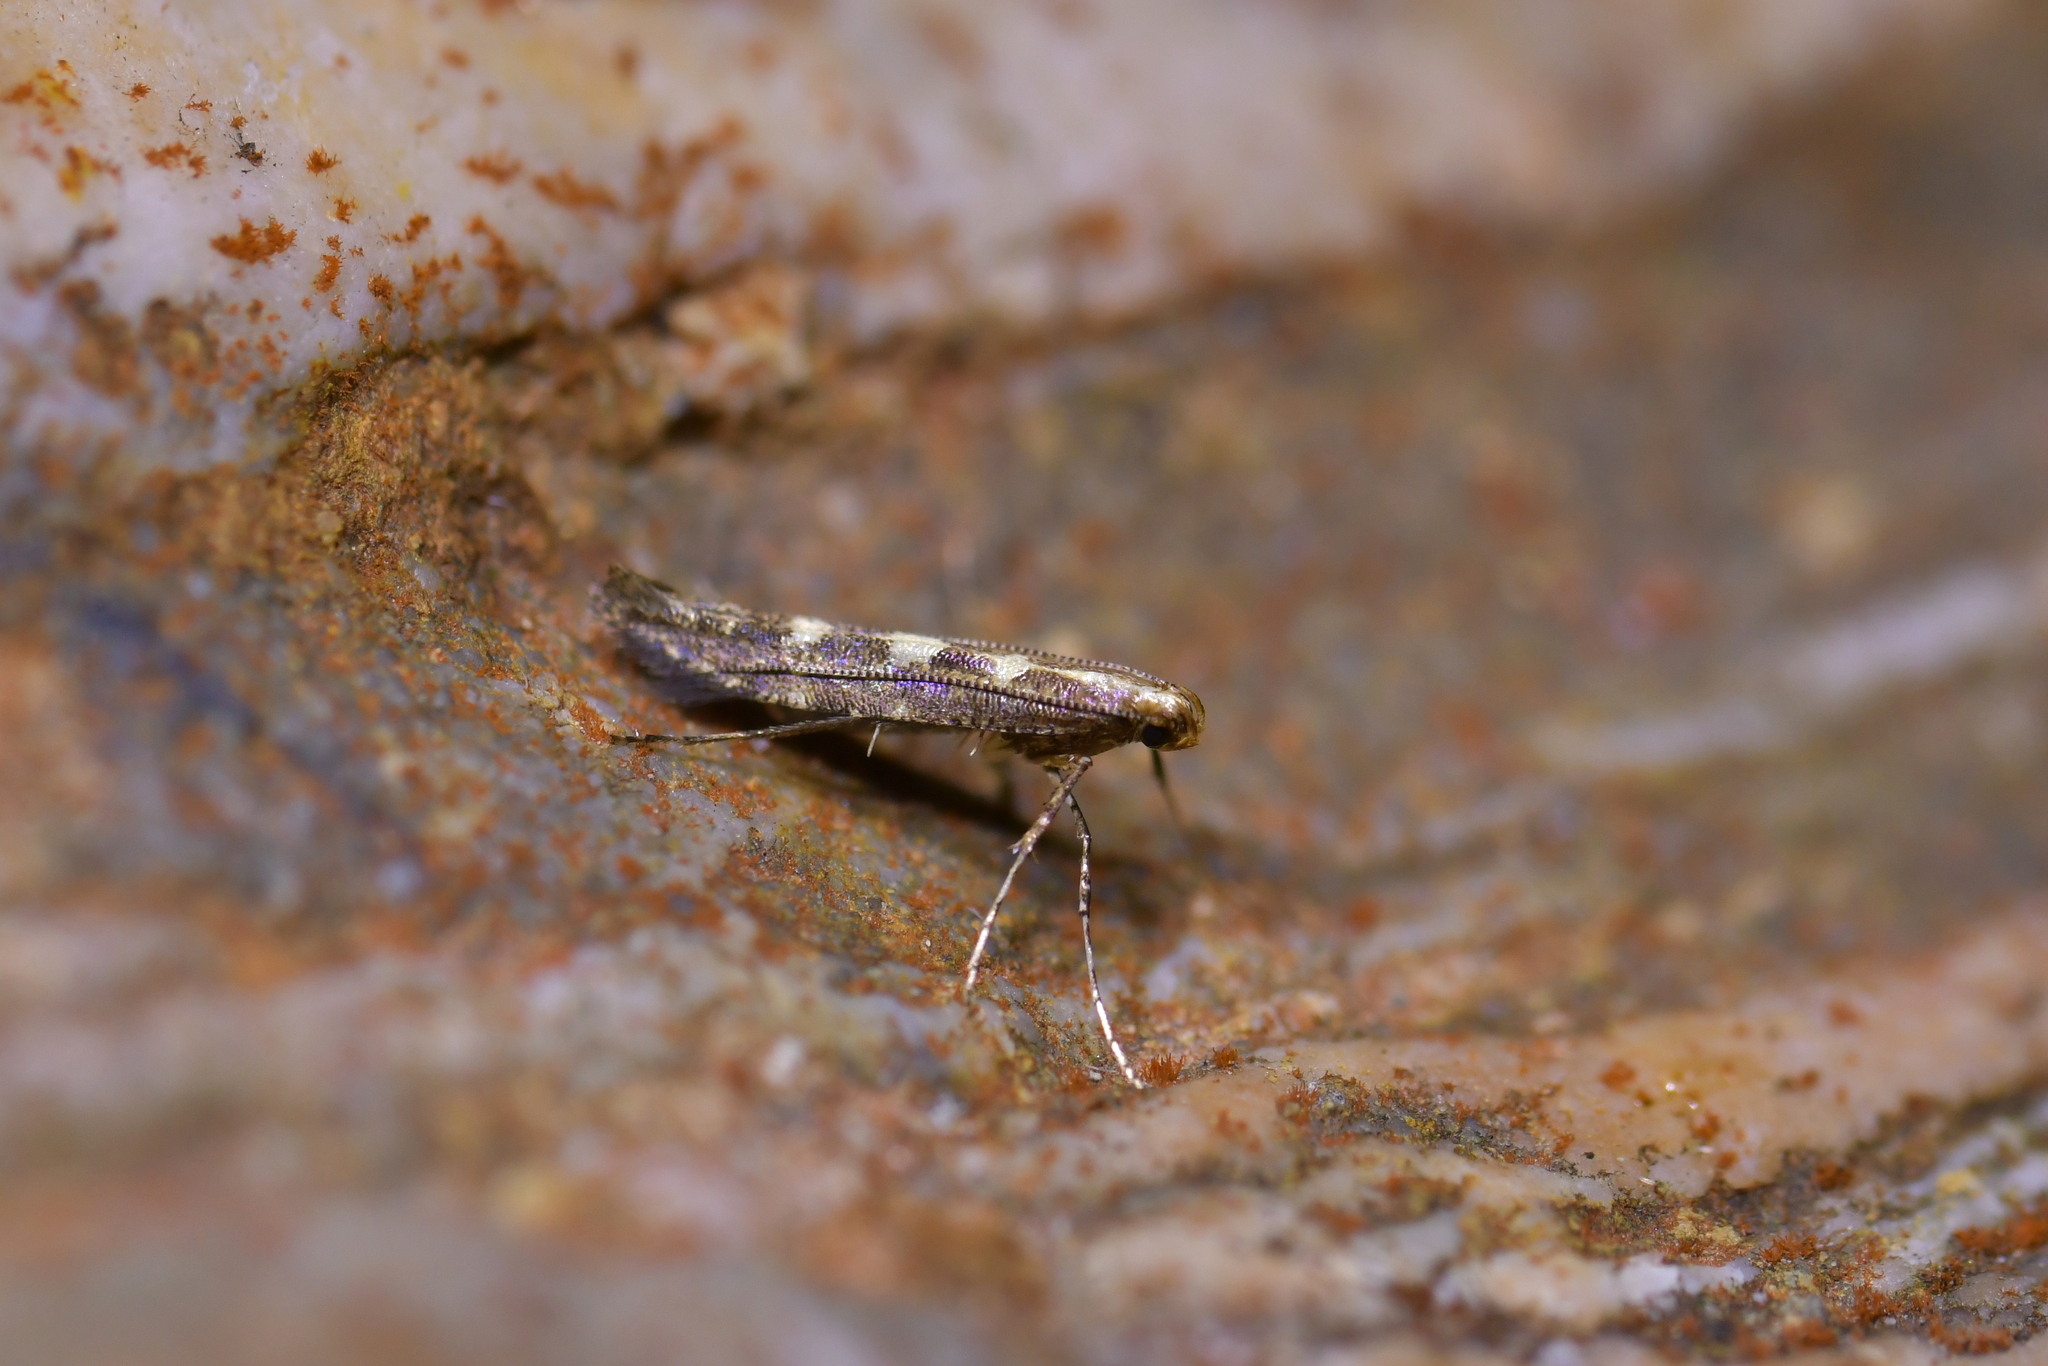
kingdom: Animalia
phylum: Arthropoda
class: Insecta
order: Lepidoptera
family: Gracillariidae
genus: Caloptilia
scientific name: Caloptilia selenitis
